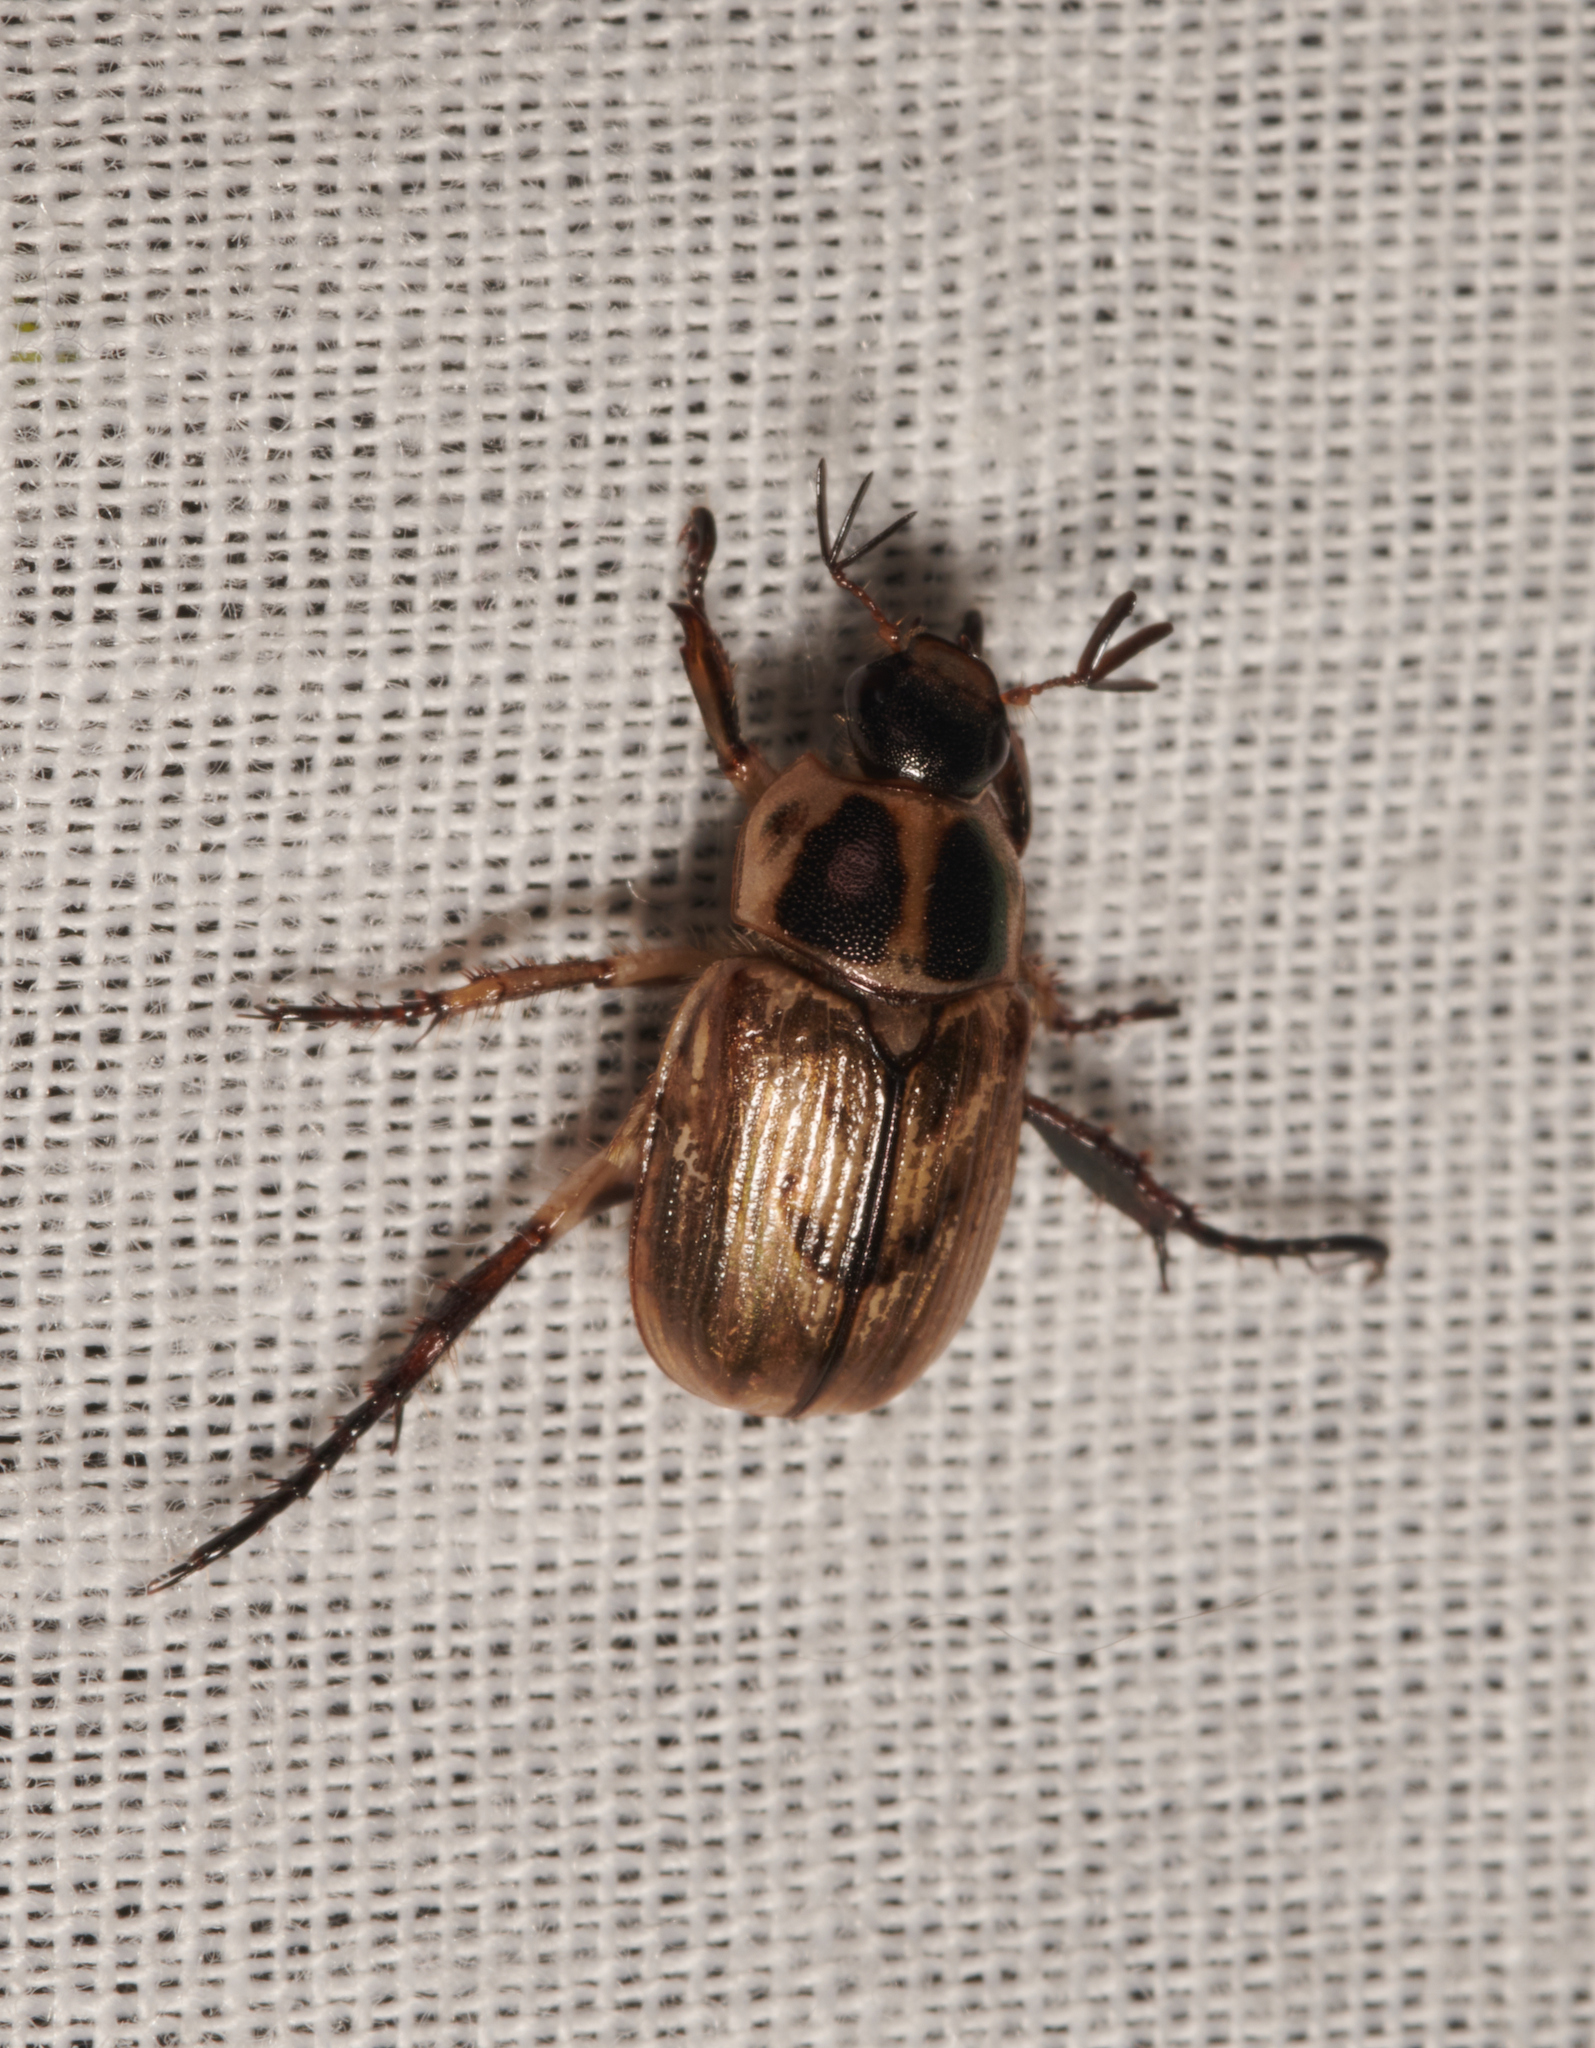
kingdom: Animalia
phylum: Arthropoda
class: Insecta
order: Coleoptera
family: Scarabaeidae
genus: Exomala
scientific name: Exomala orientalis
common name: Oriental beetle
